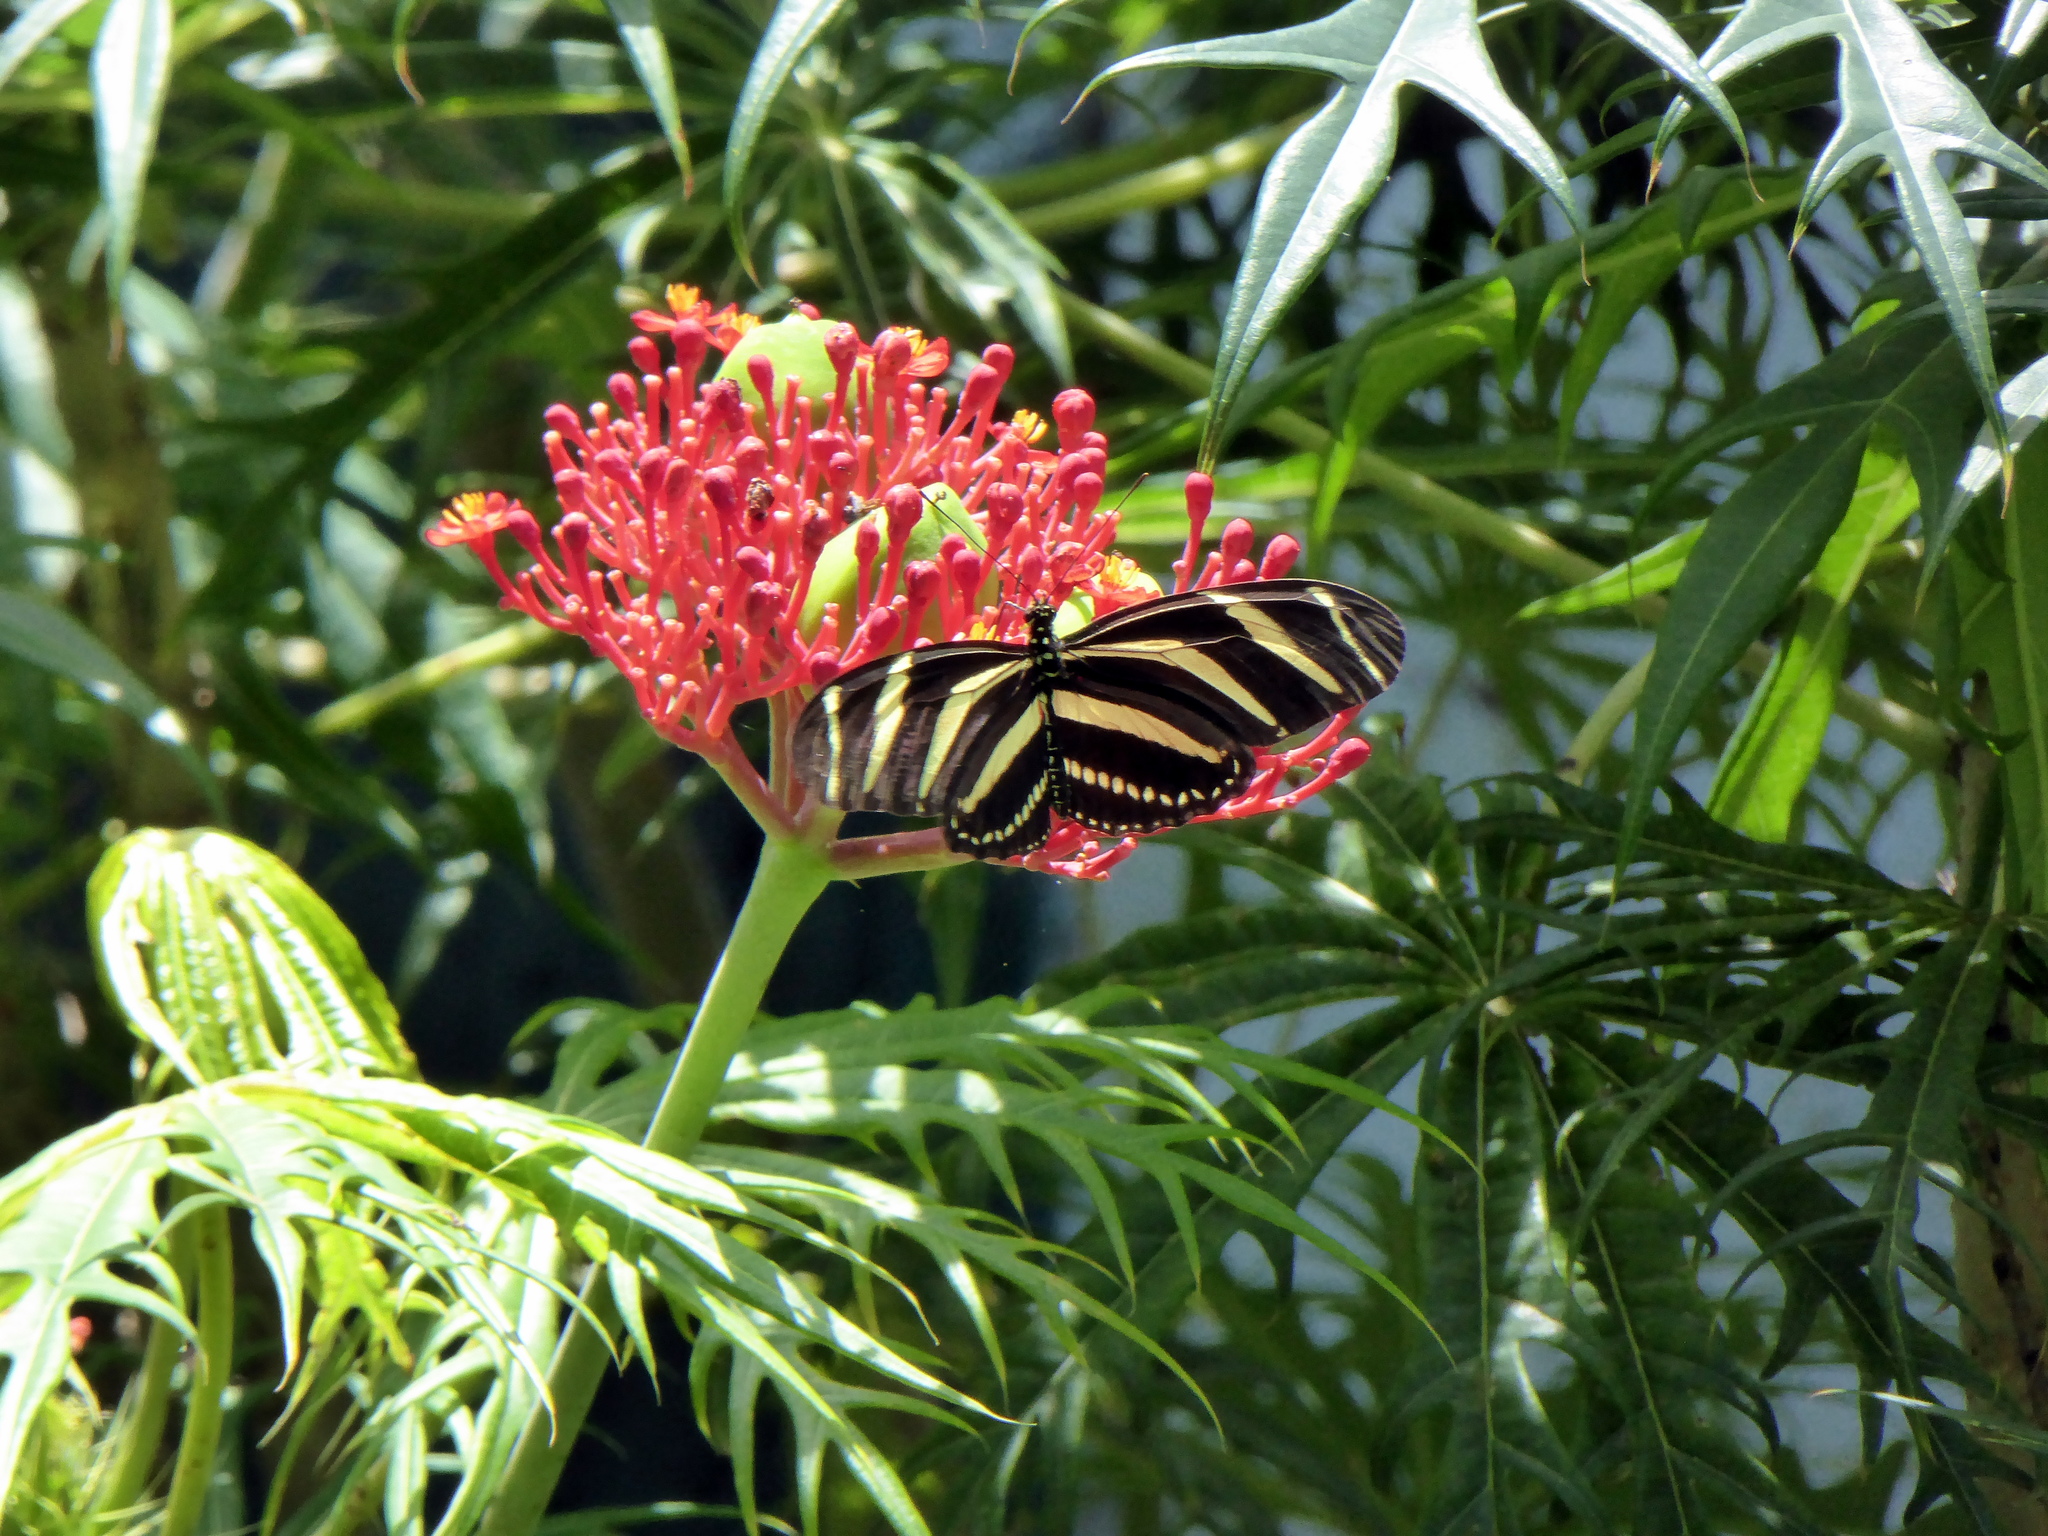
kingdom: Animalia
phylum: Arthropoda
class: Insecta
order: Lepidoptera
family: Nymphalidae
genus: Heliconius
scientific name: Heliconius charithonia
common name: Zebra long wing
